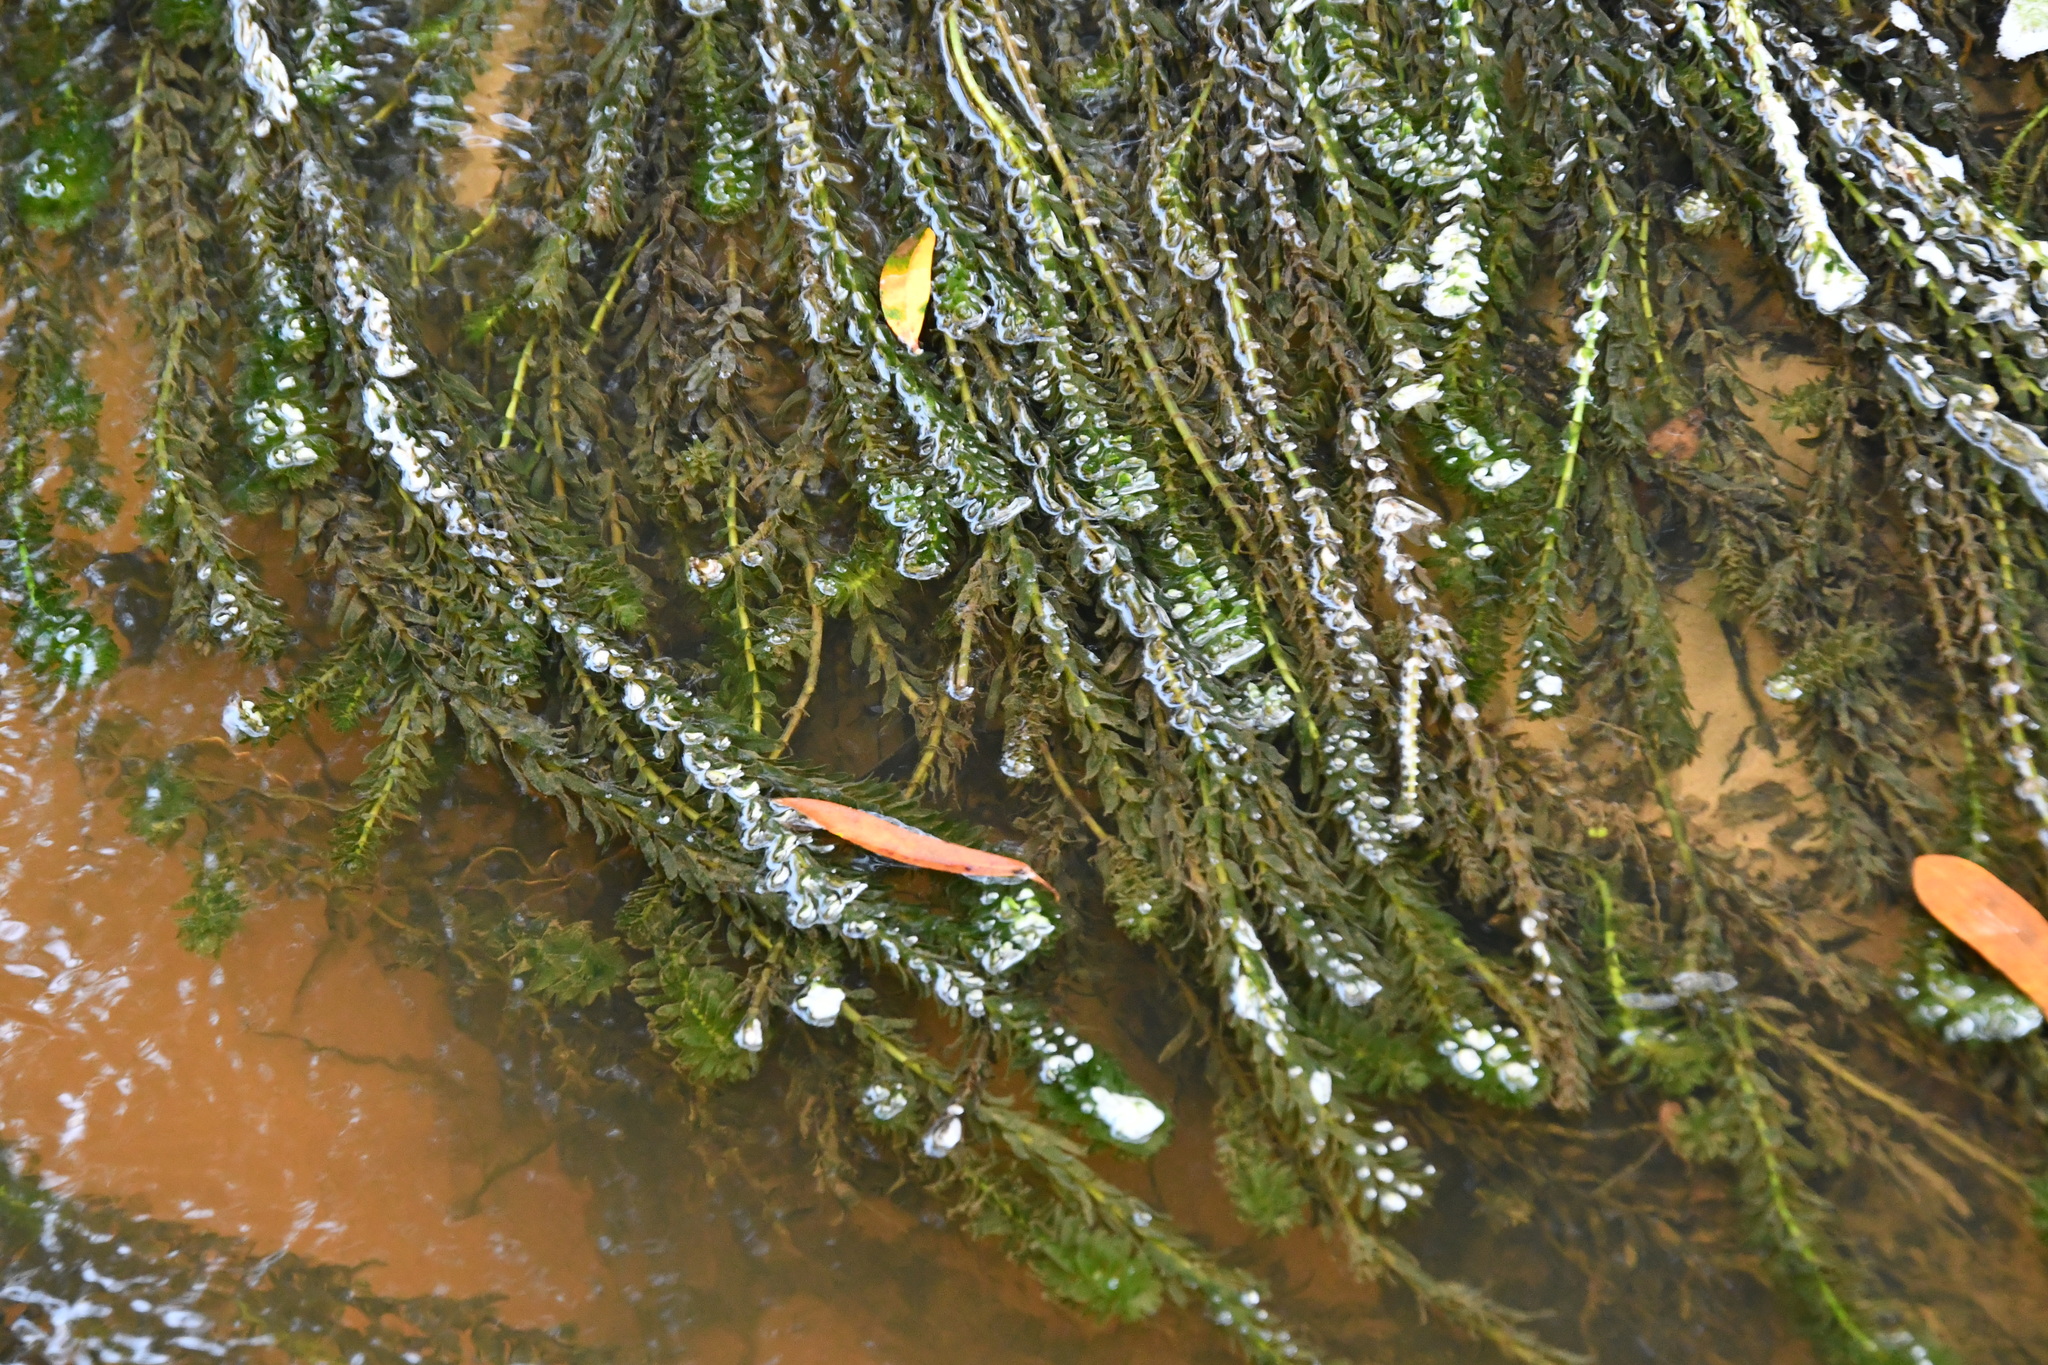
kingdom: Plantae
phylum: Tracheophyta
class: Liliopsida
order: Alismatales
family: Hydrocharitaceae
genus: Elodea
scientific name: Elodea densa
